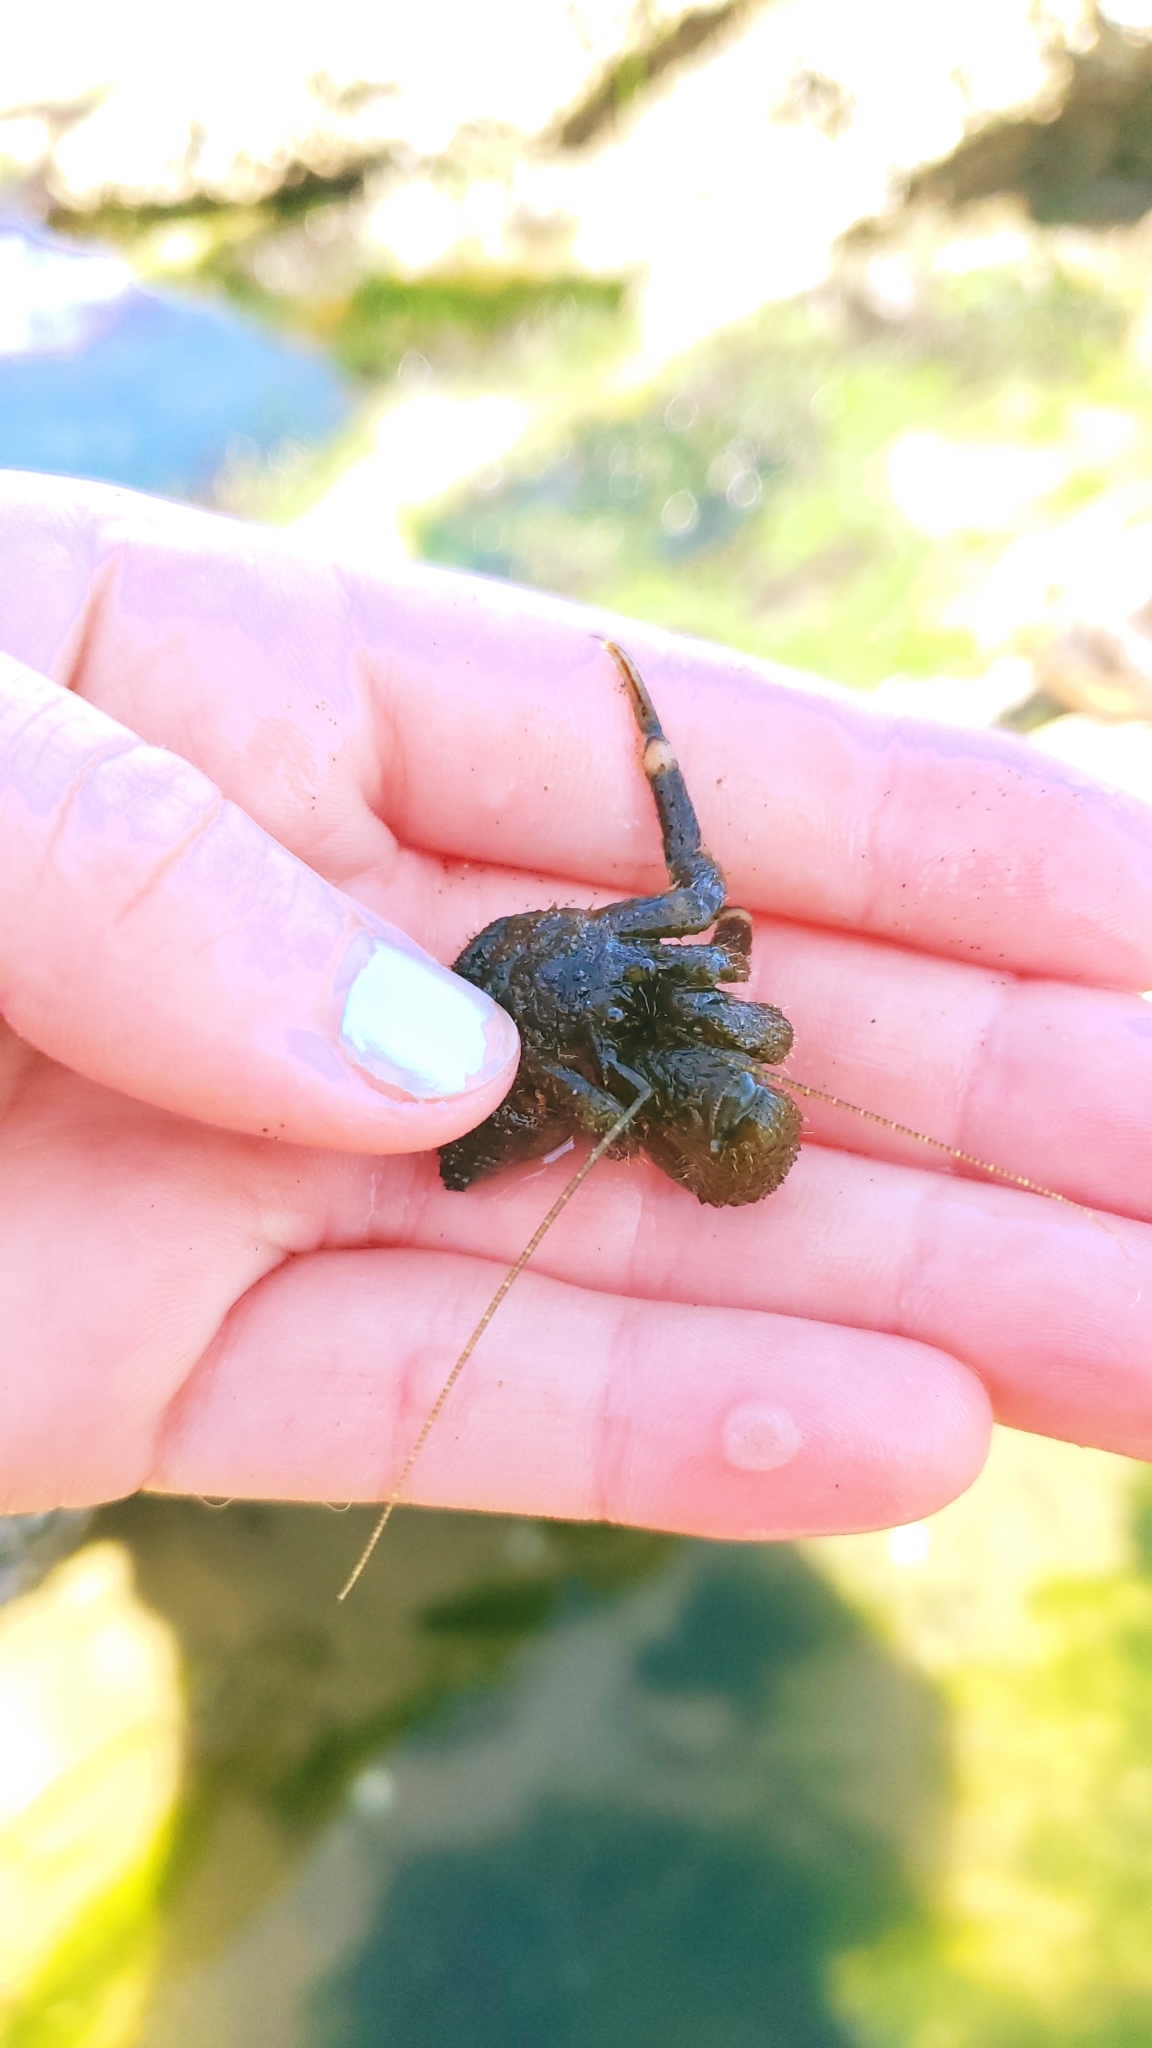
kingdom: Animalia
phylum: Arthropoda
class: Malacostraca
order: Decapoda
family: Paguridae
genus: Pagurus
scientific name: Pagurus hirsutiusculus
